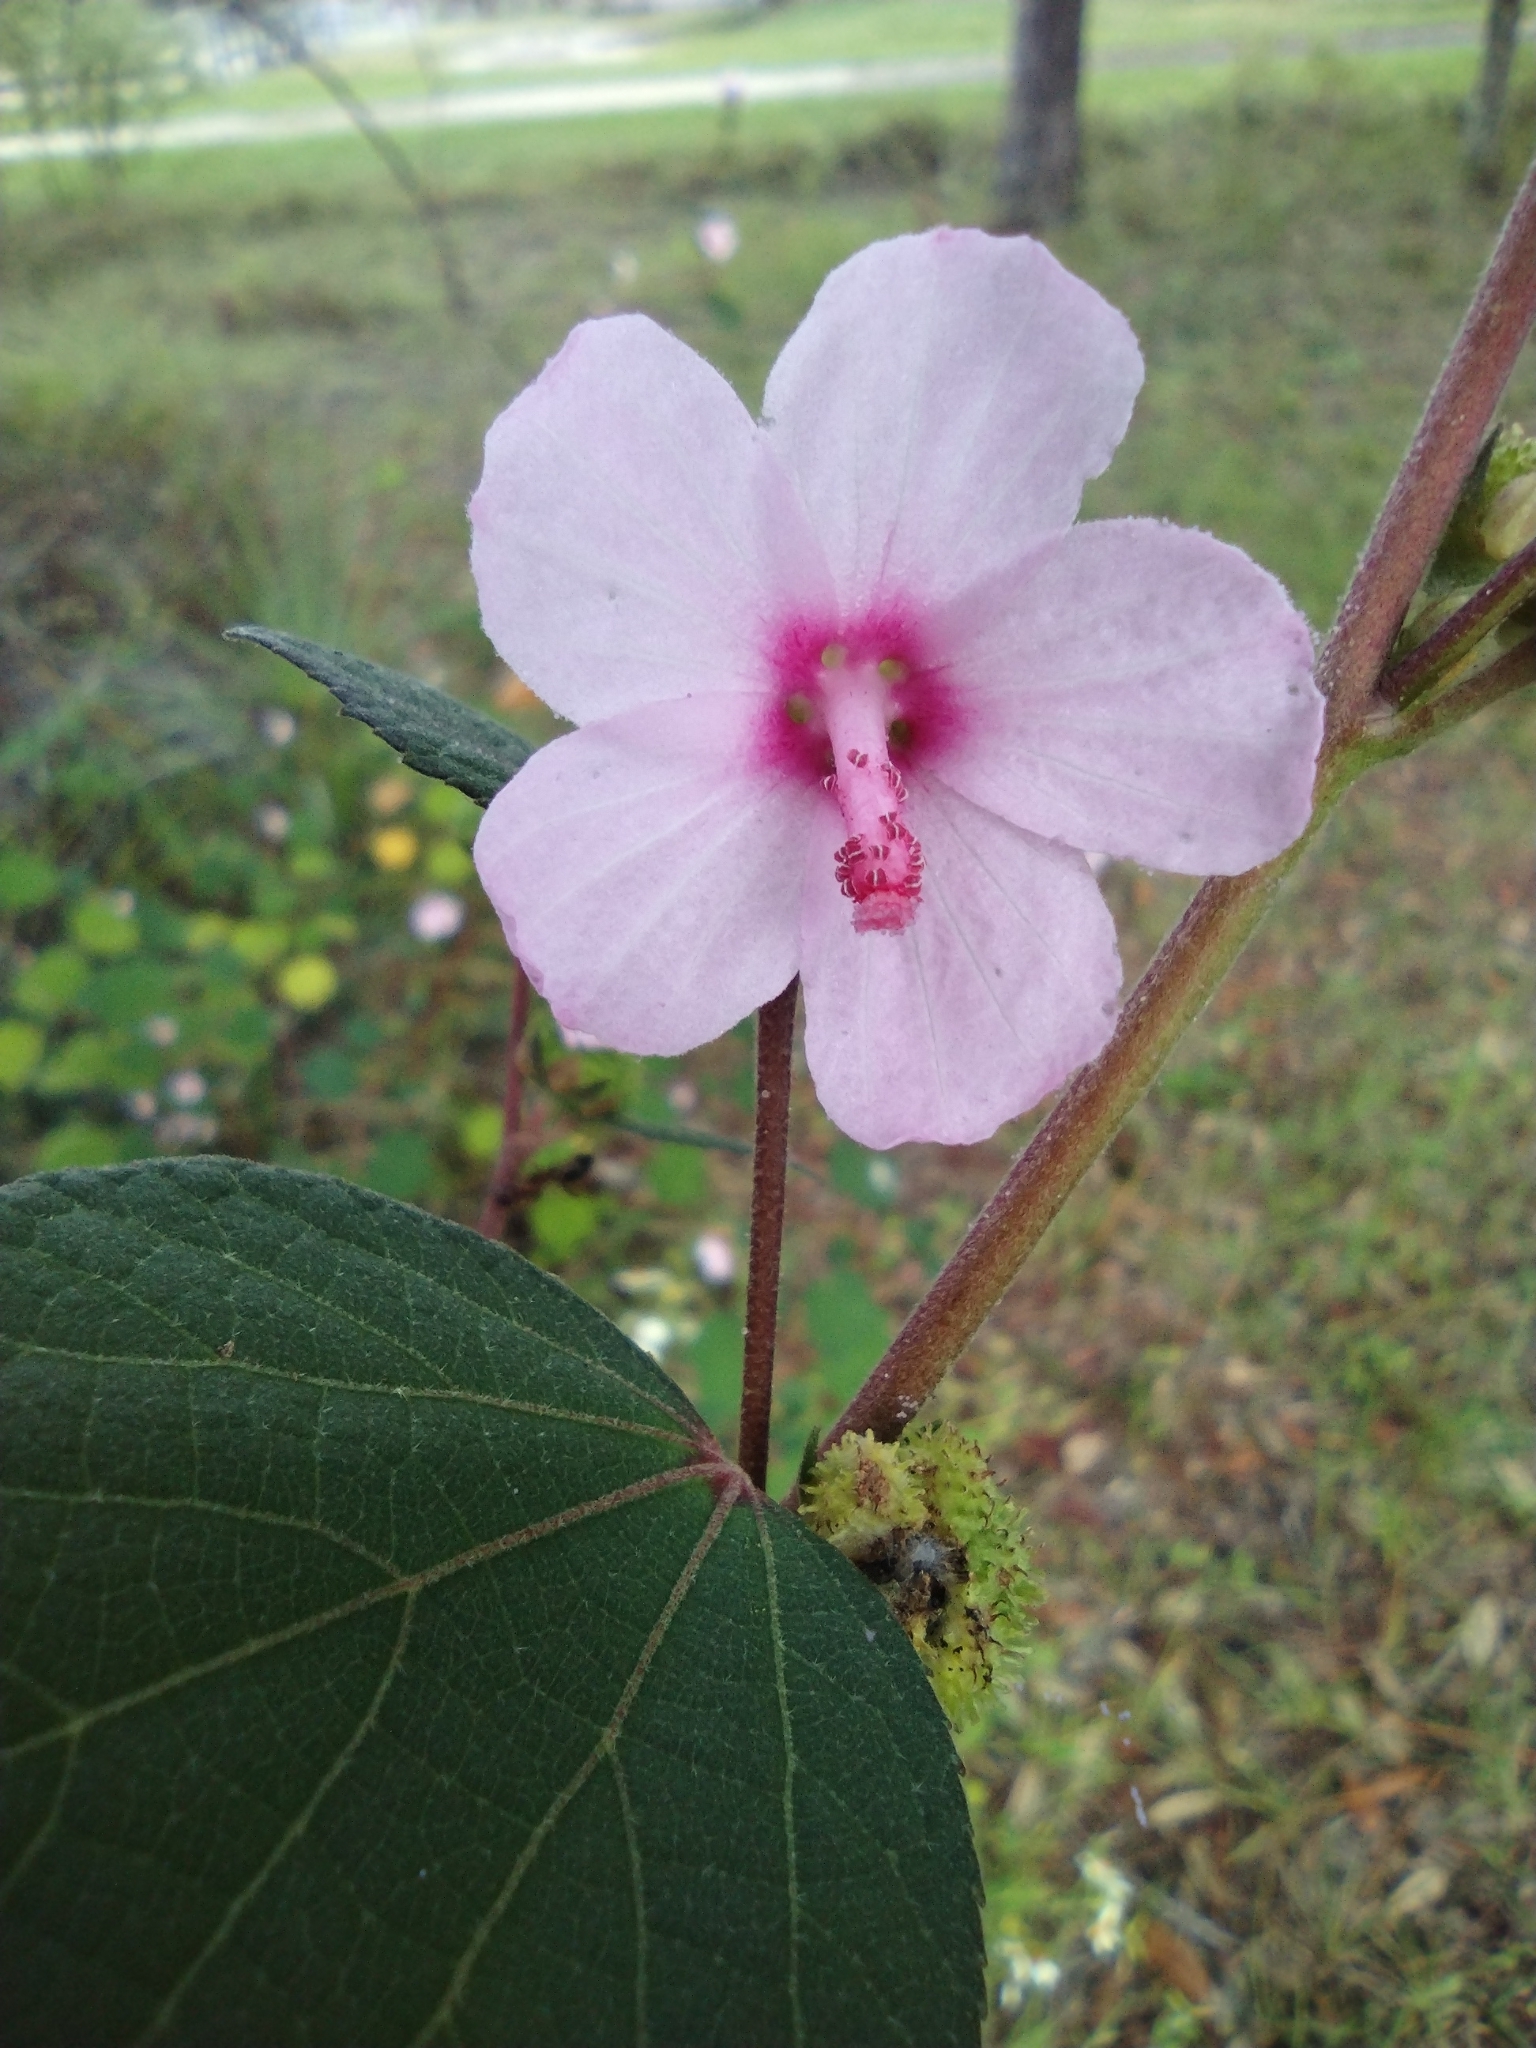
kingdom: Plantae
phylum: Tracheophyta
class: Magnoliopsida
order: Malvales
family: Malvaceae
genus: Urena
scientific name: Urena lobata
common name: Caesarweed
